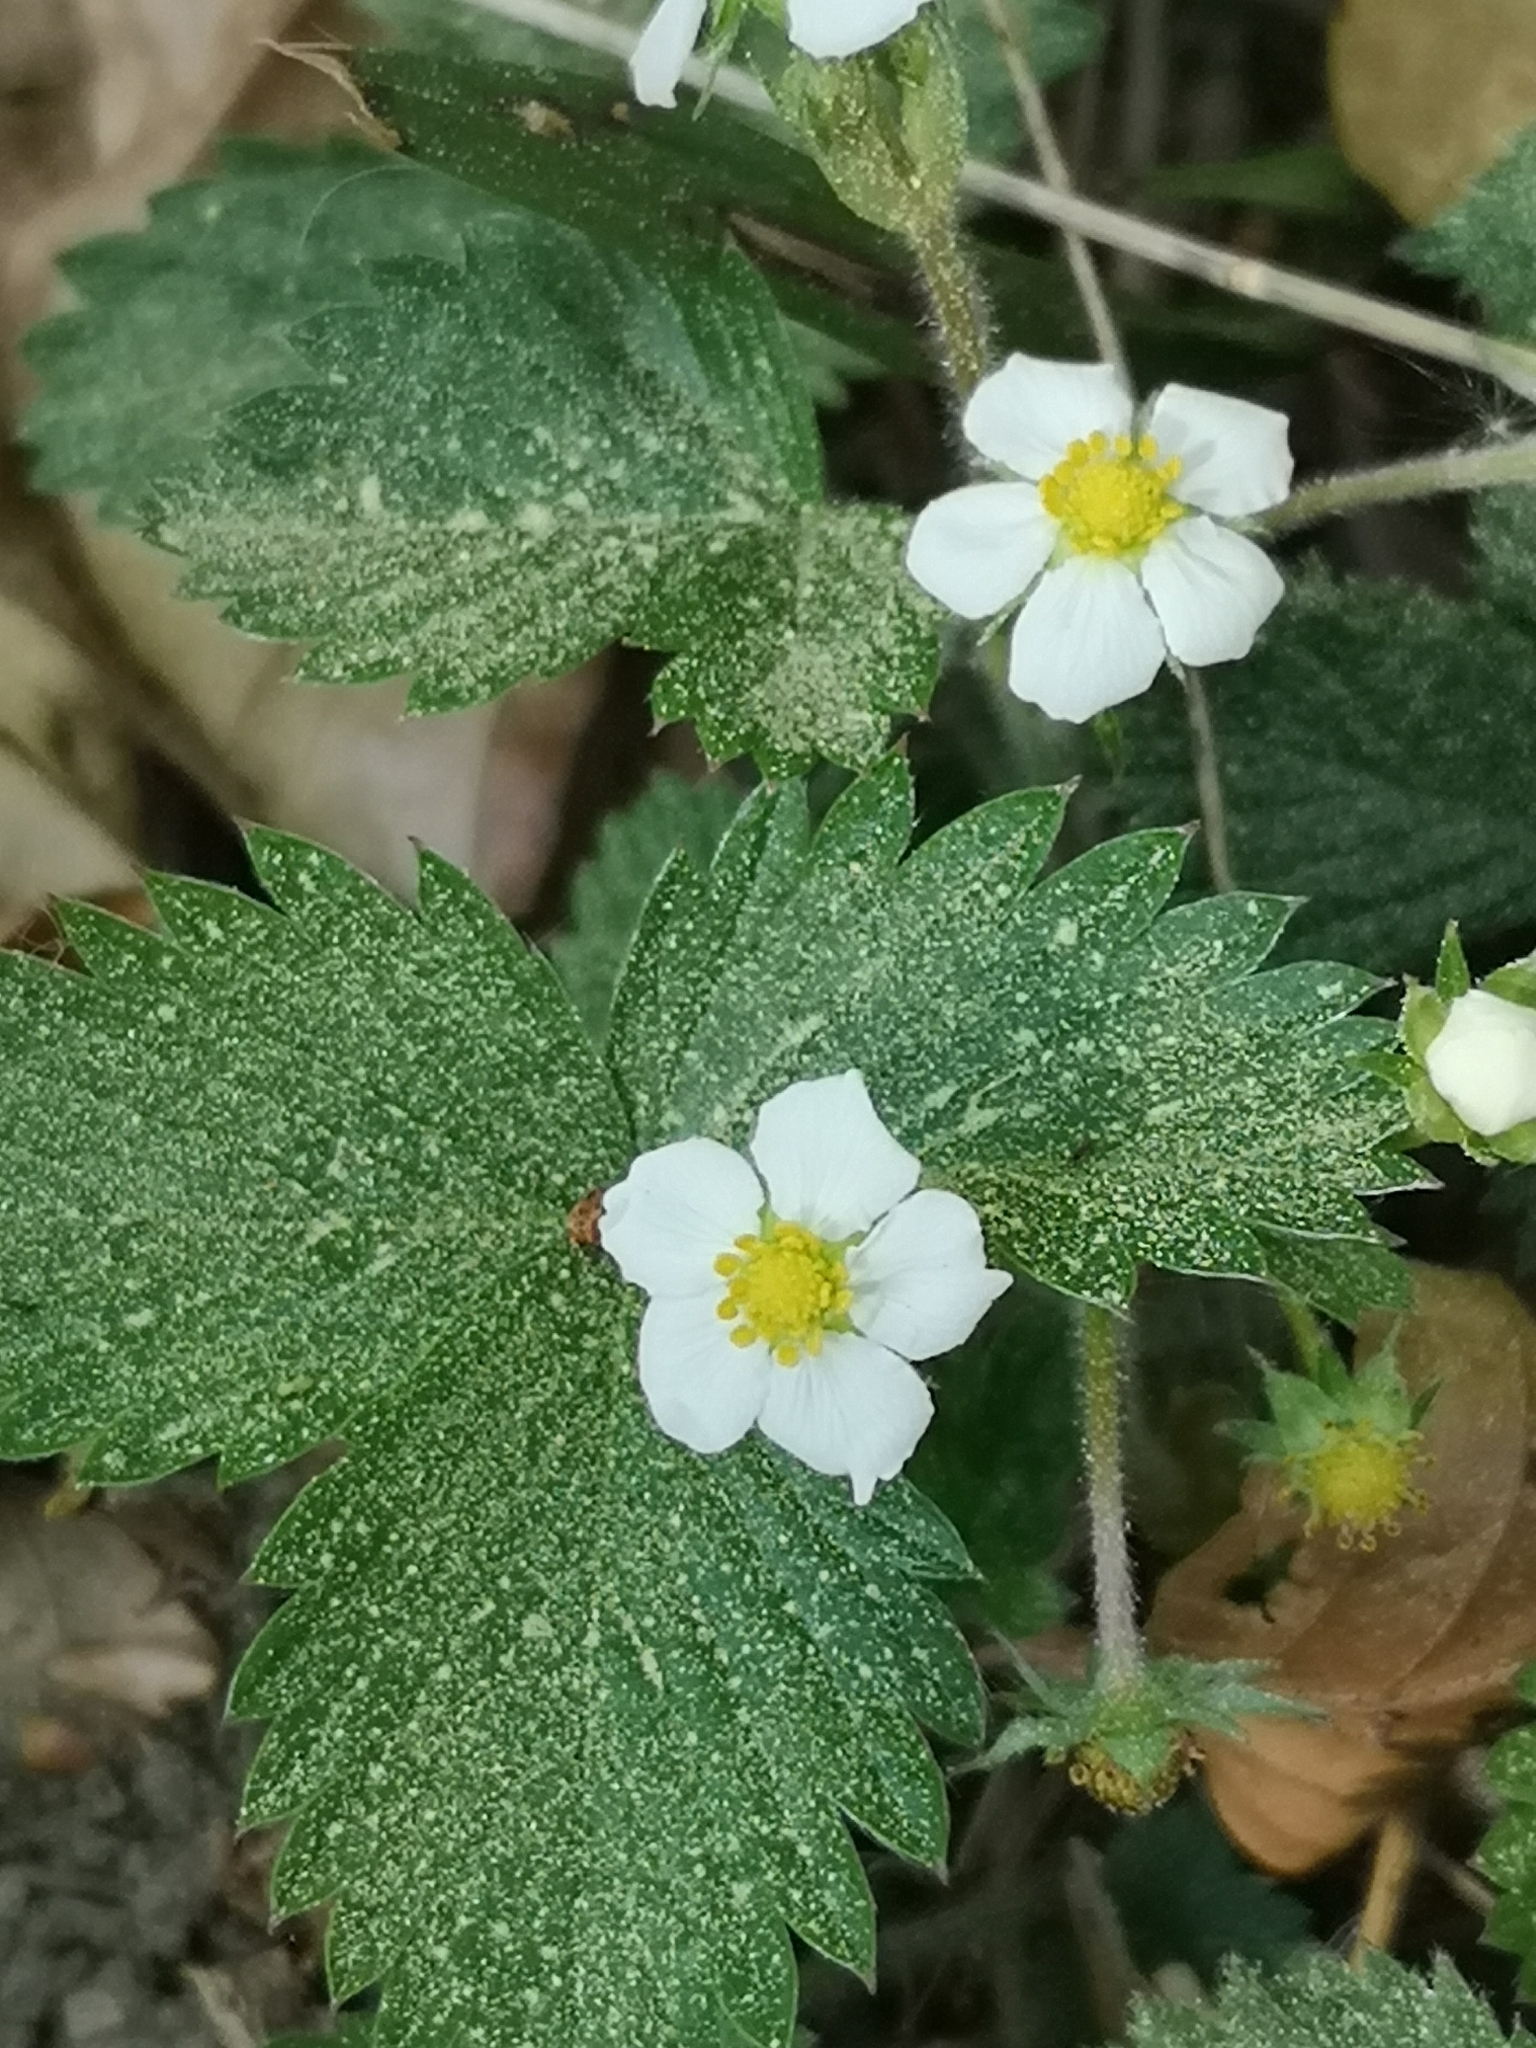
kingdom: Plantae
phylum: Tracheophyta
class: Magnoliopsida
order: Rosales
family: Rosaceae
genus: Fragaria
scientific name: Fragaria vesca
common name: Wild strawberry
